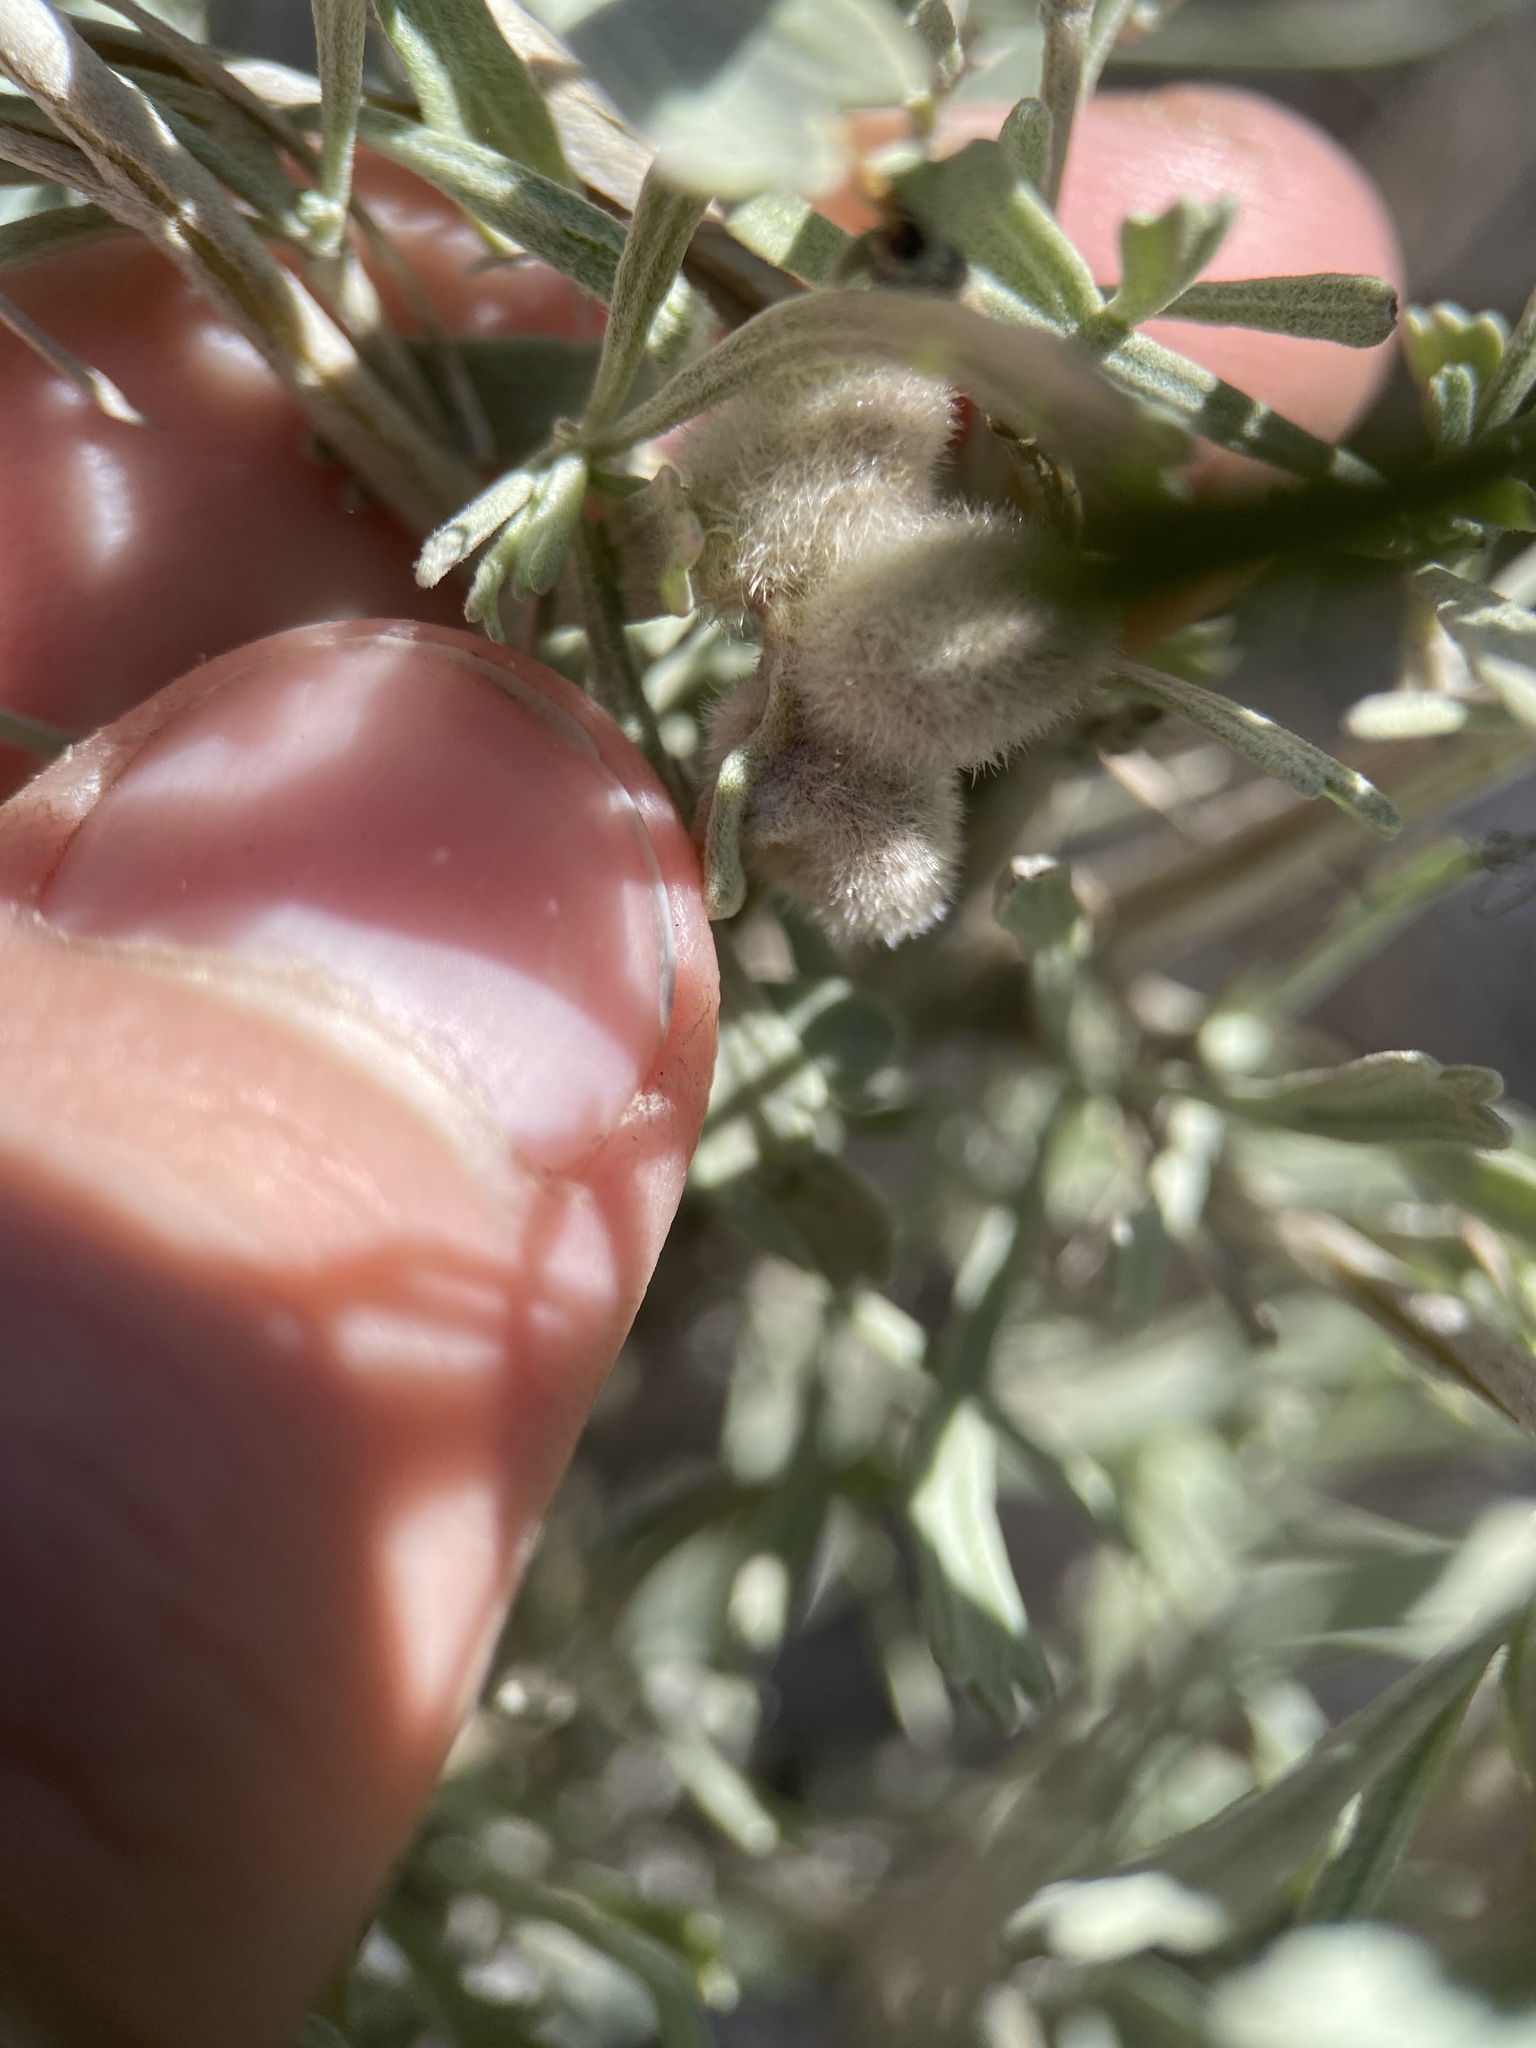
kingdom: Animalia
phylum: Arthropoda
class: Insecta
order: Diptera
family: Cecidomyiidae
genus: Rhopalomyia
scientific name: Rhopalomyia hirtipomum
